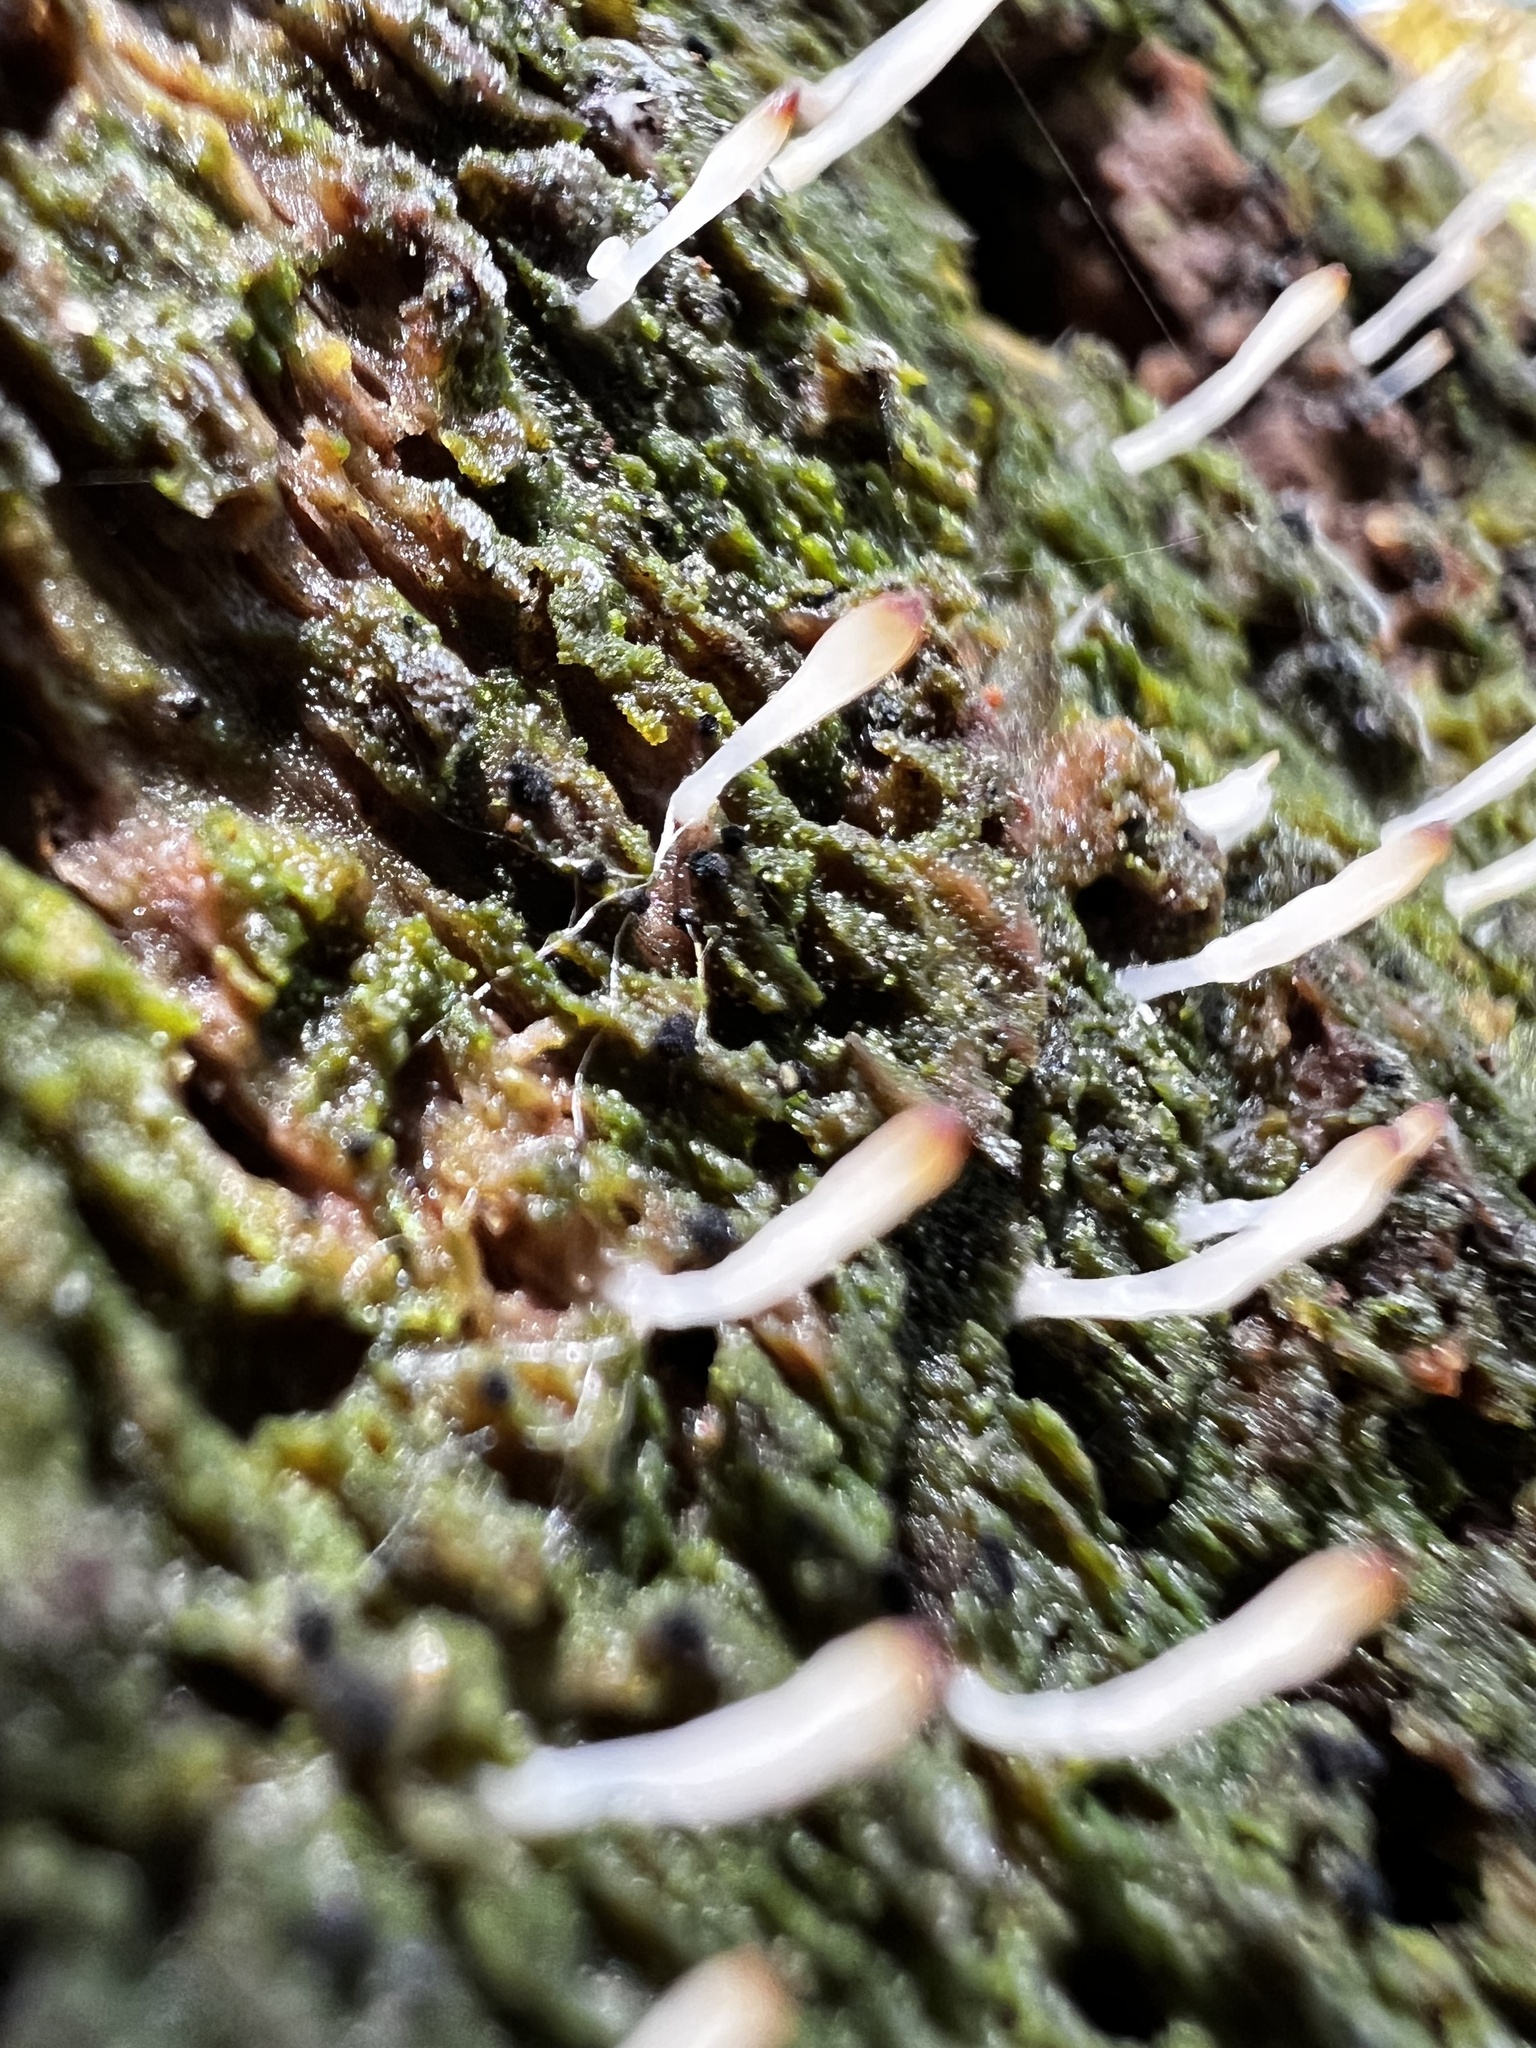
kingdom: Fungi
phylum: Basidiomycota
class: Agaricomycetes
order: Cantharellales
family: Hydnaceae
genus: Multiclavula
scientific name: Multiclavula mucida
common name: White green-algae coral
